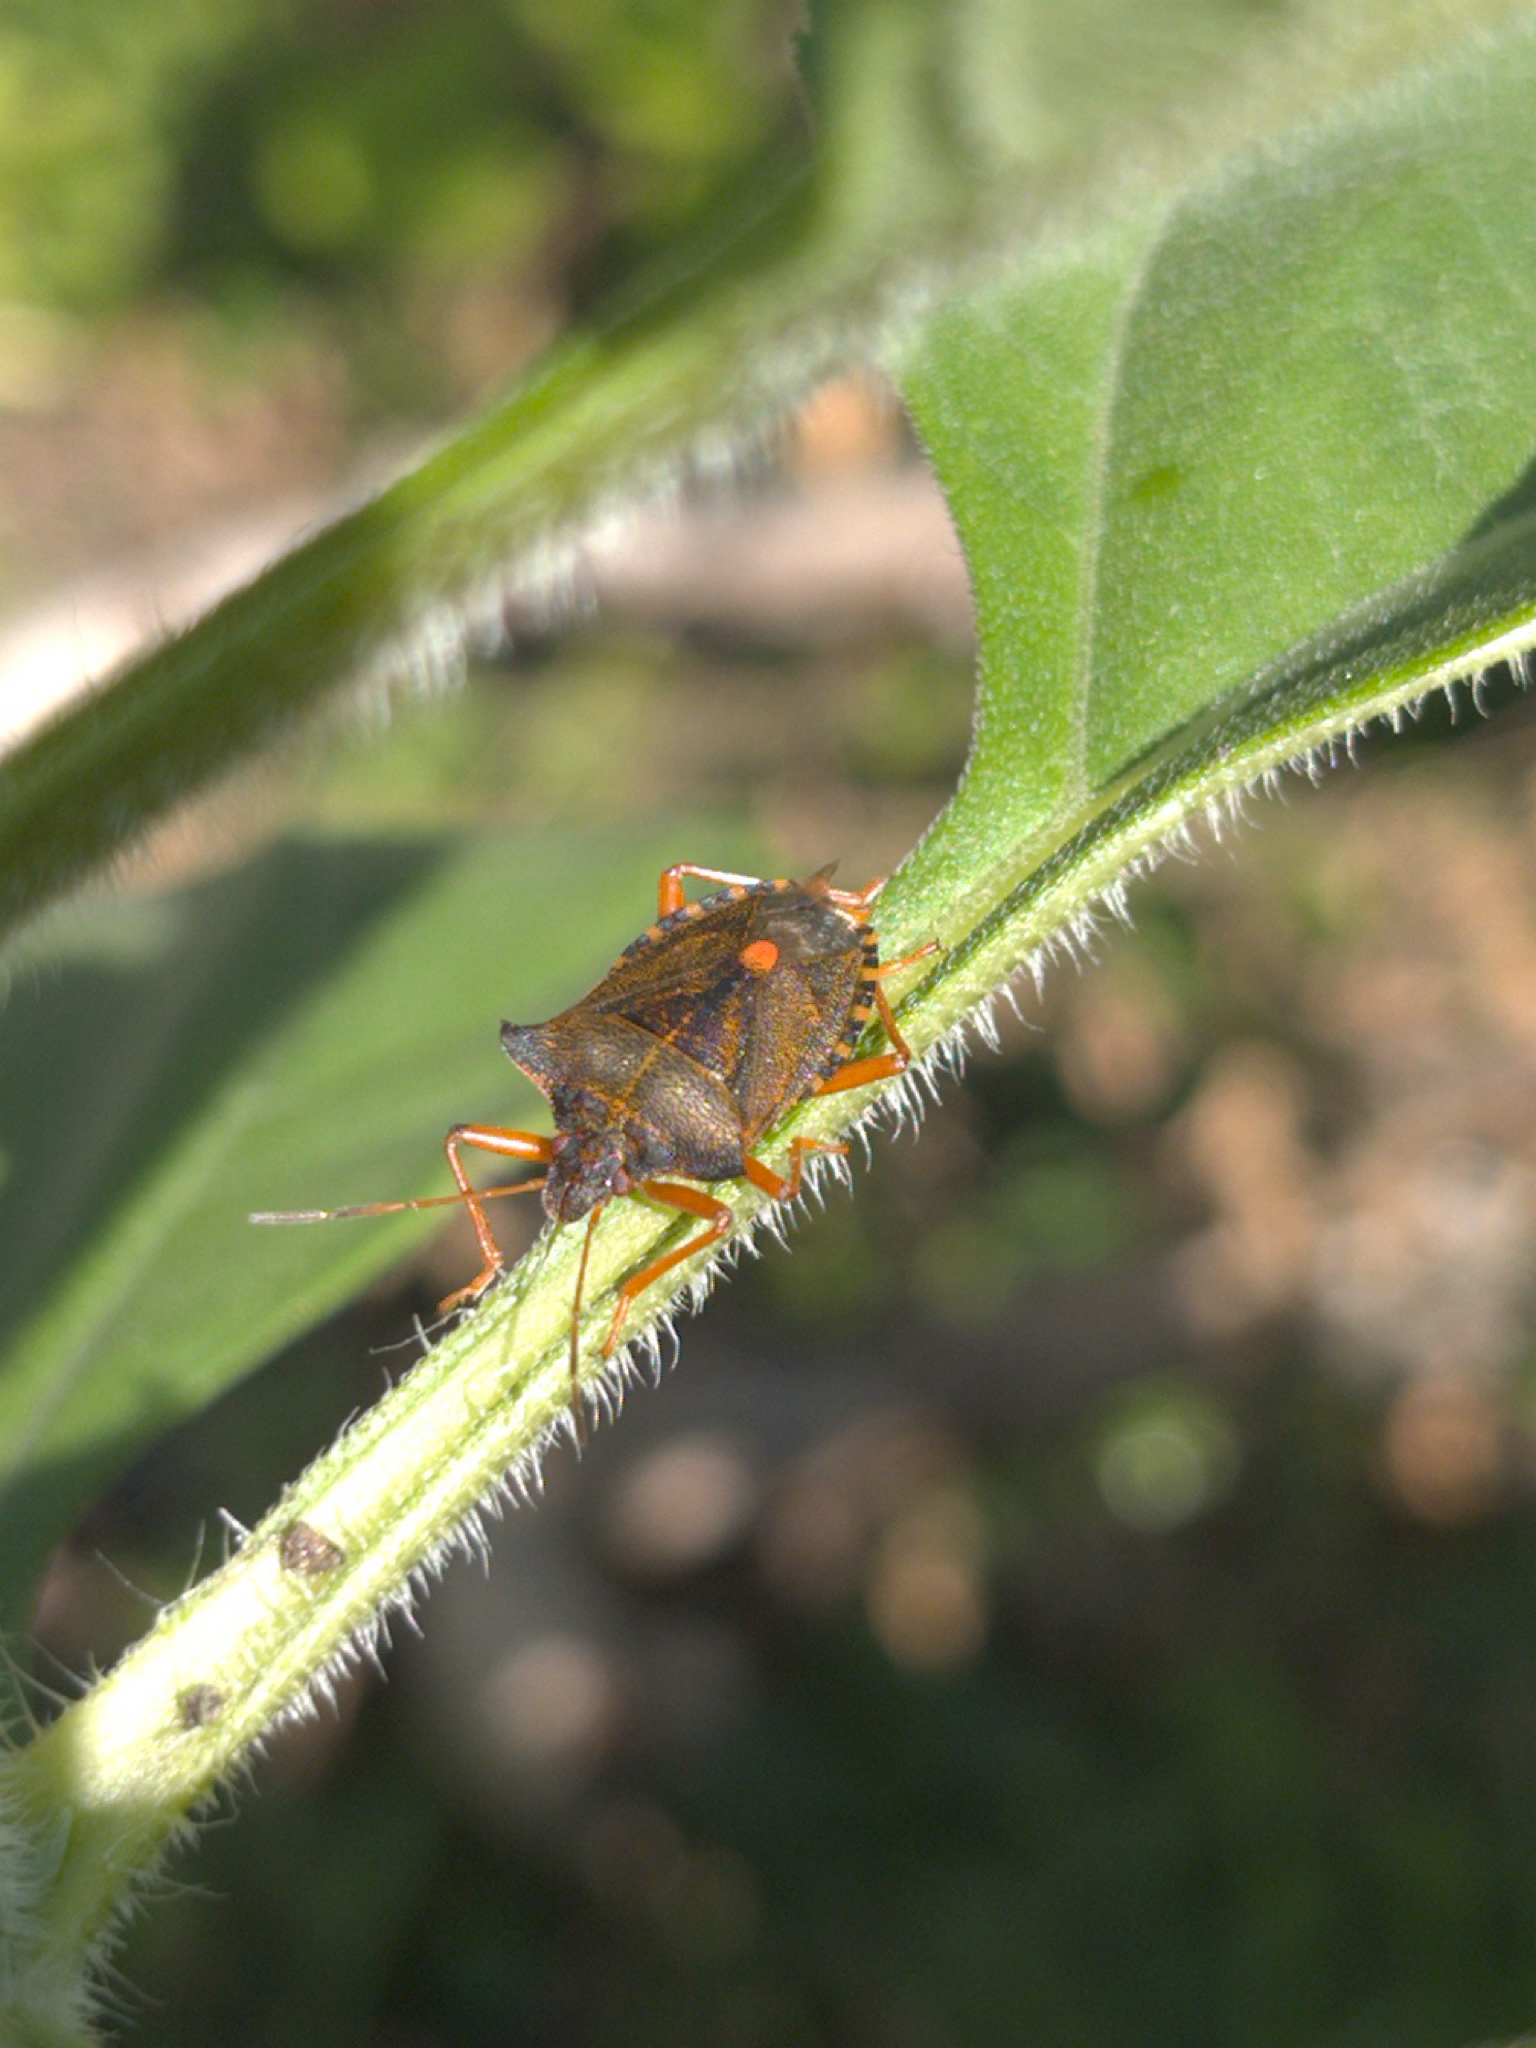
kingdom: Animalia
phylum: Arthropoda
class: Insecta
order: Hemiptera
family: Pentatomidae
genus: Pentatoma
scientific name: Pentatoma rufipes
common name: Forest bug
